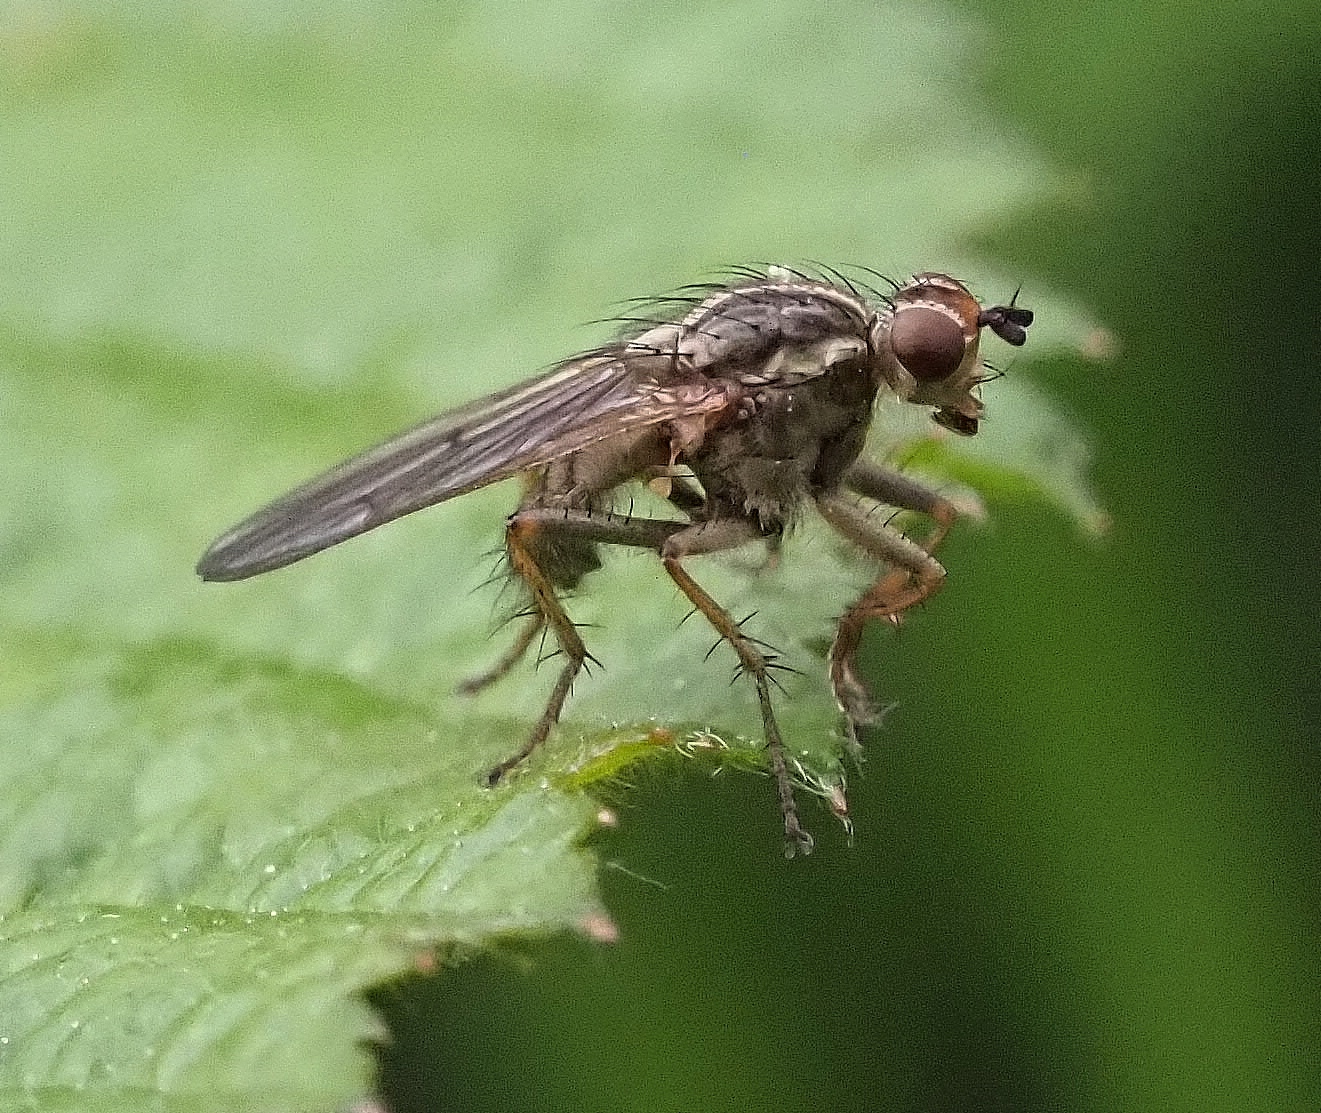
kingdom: Animalia
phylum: Arthropoda
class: Insecta
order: Diptera
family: Scathophagidae
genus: Scathophaga
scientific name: Scathophaga stercoraria
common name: Yellow dung fly
